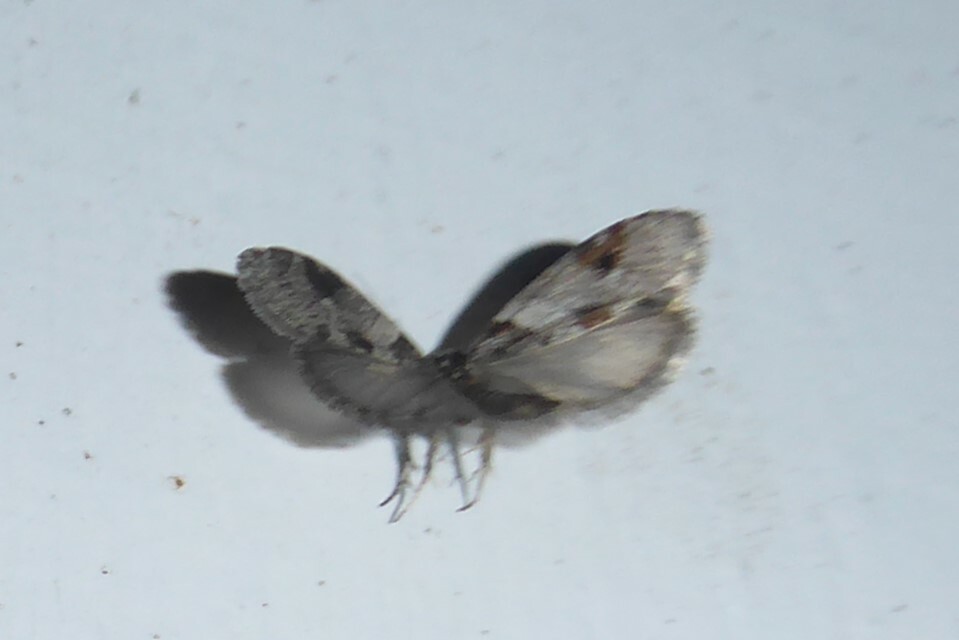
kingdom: Animalia
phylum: Arthropoda
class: Insecta
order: Lepidoptera
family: Psychidae
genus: Lepidoscia
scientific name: Lepidoscia heliochares
